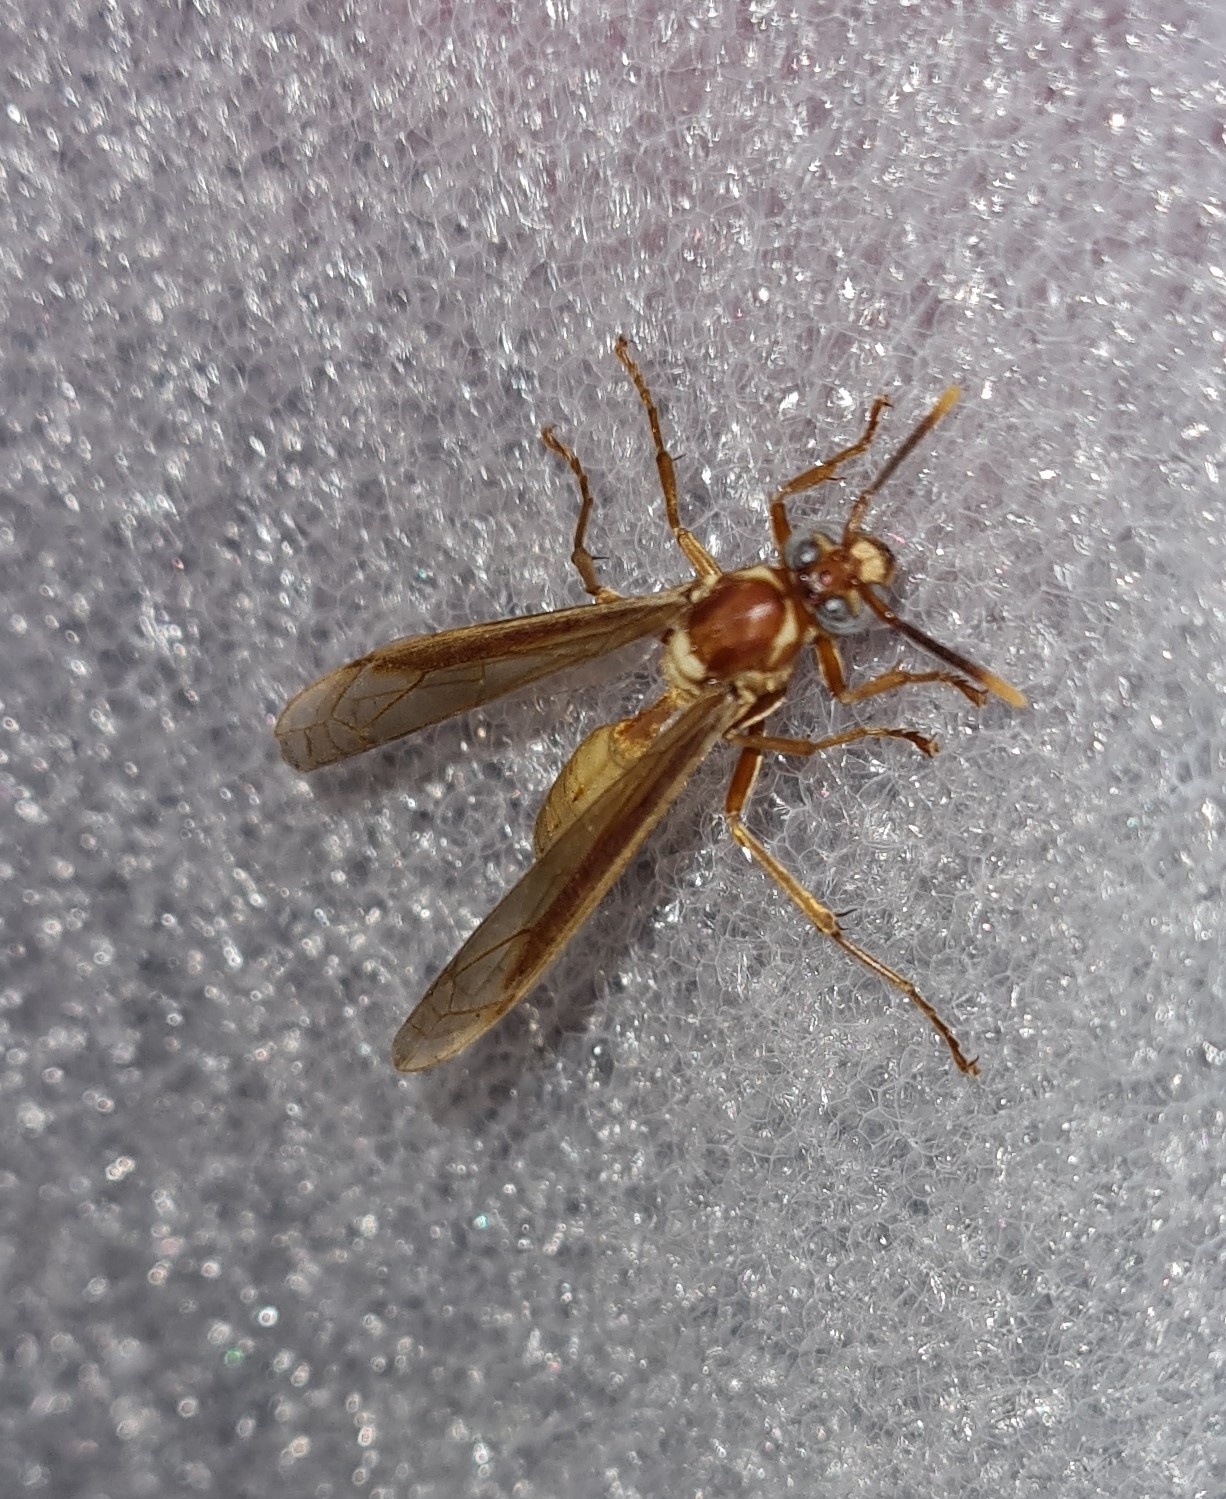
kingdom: Animalia
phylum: Arthropoda
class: Insecta
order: Hymenoptera
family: Vespidae
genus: Apoica
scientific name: Apoica gelida
